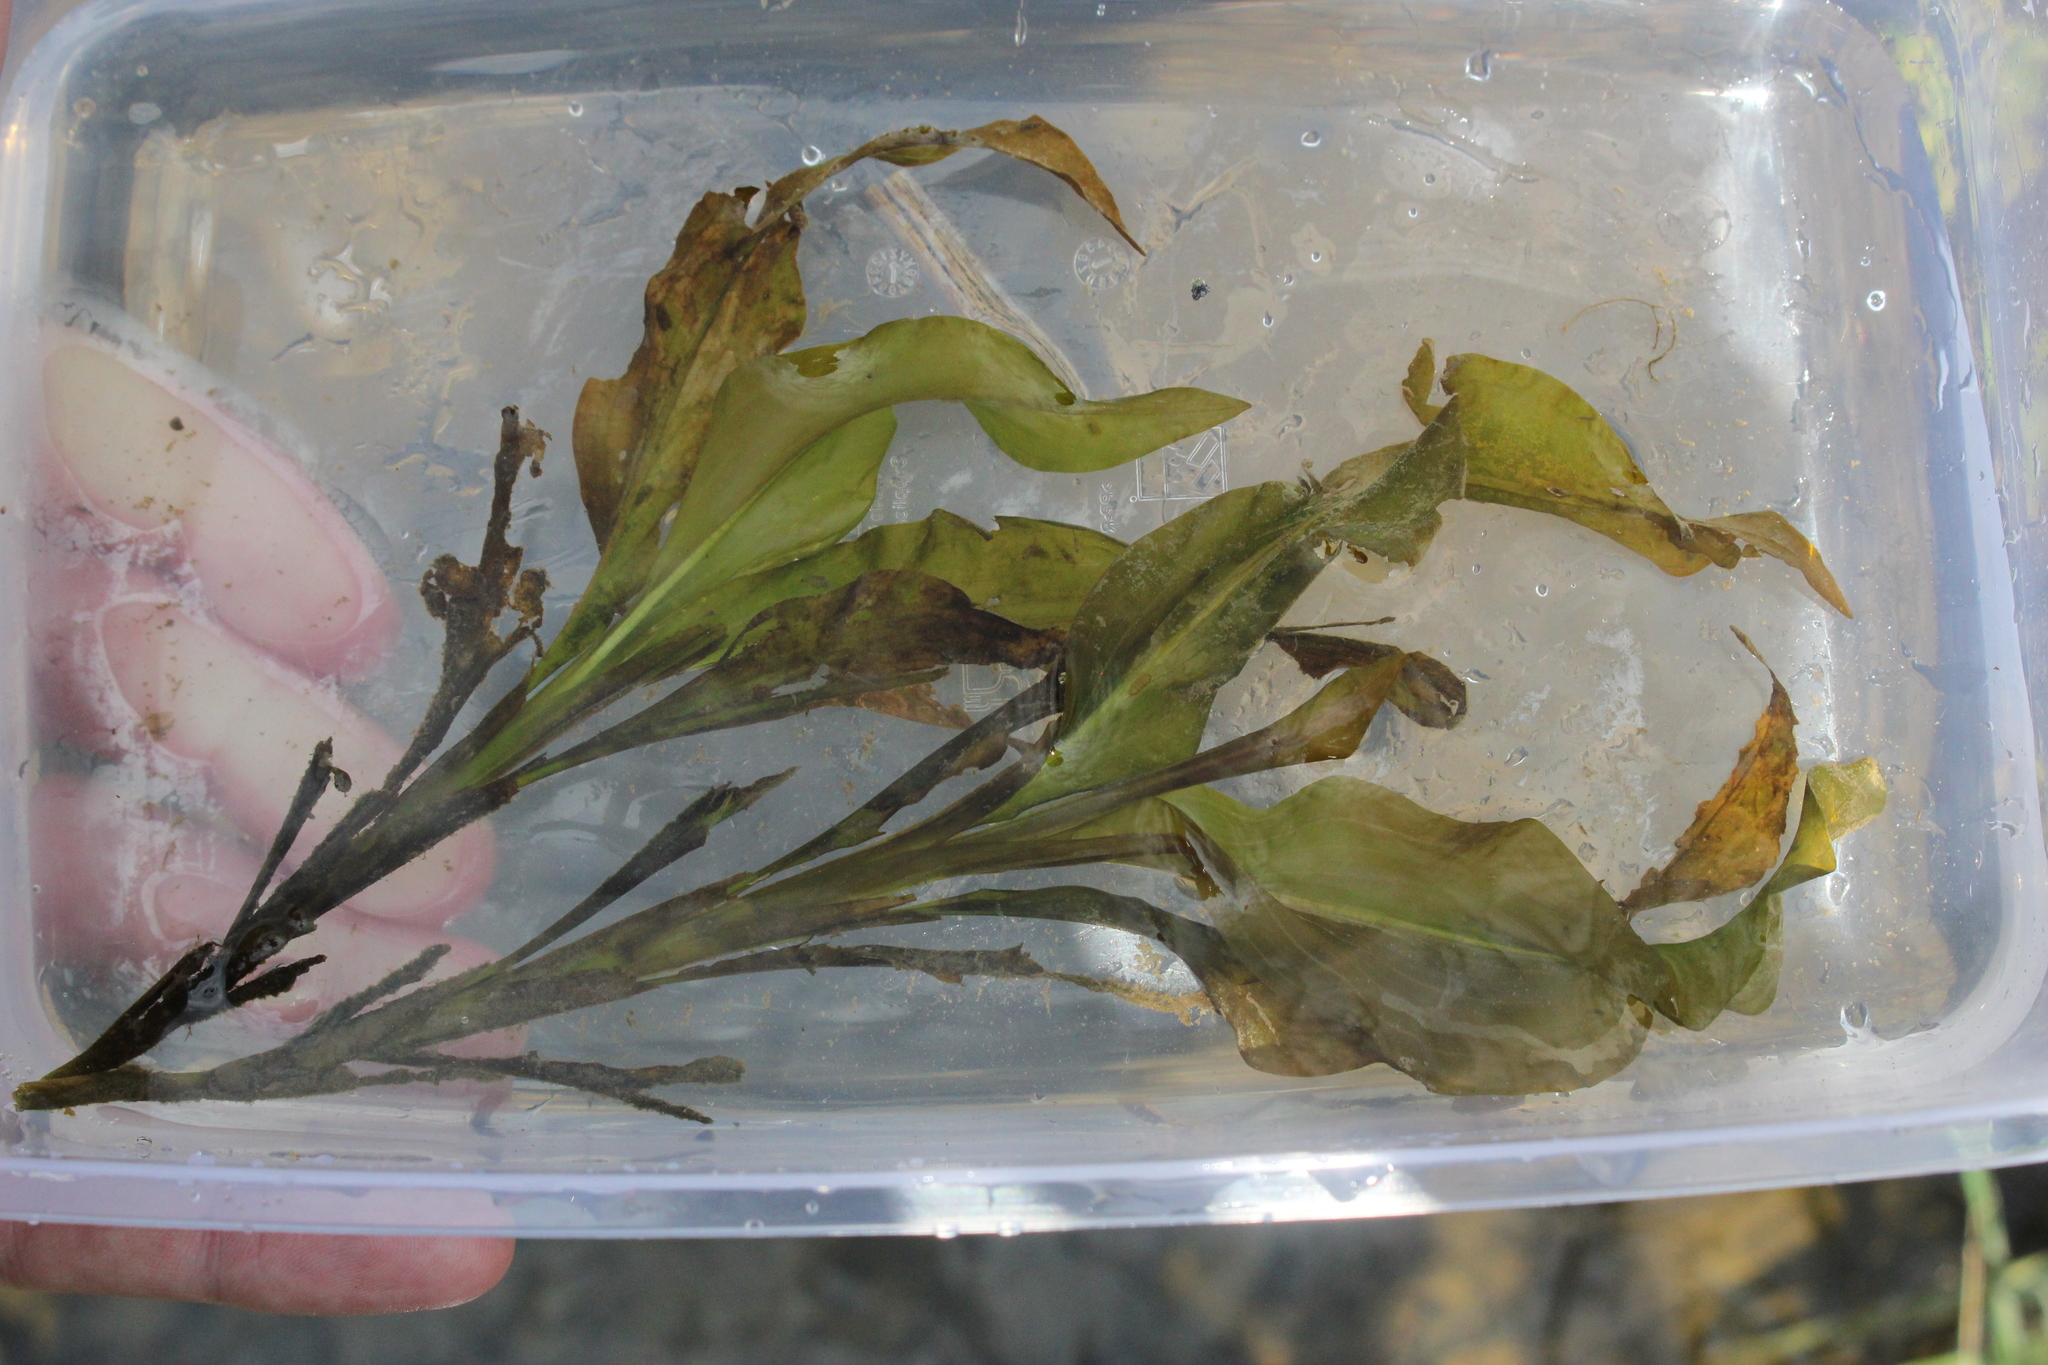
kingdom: Plantae
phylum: Tracheophyta
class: Liliopsida
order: Alismatales
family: Potamogetonaceae
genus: Potamogeton
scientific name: Potamogeton amplifolius
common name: Broad-leaved pondweed
